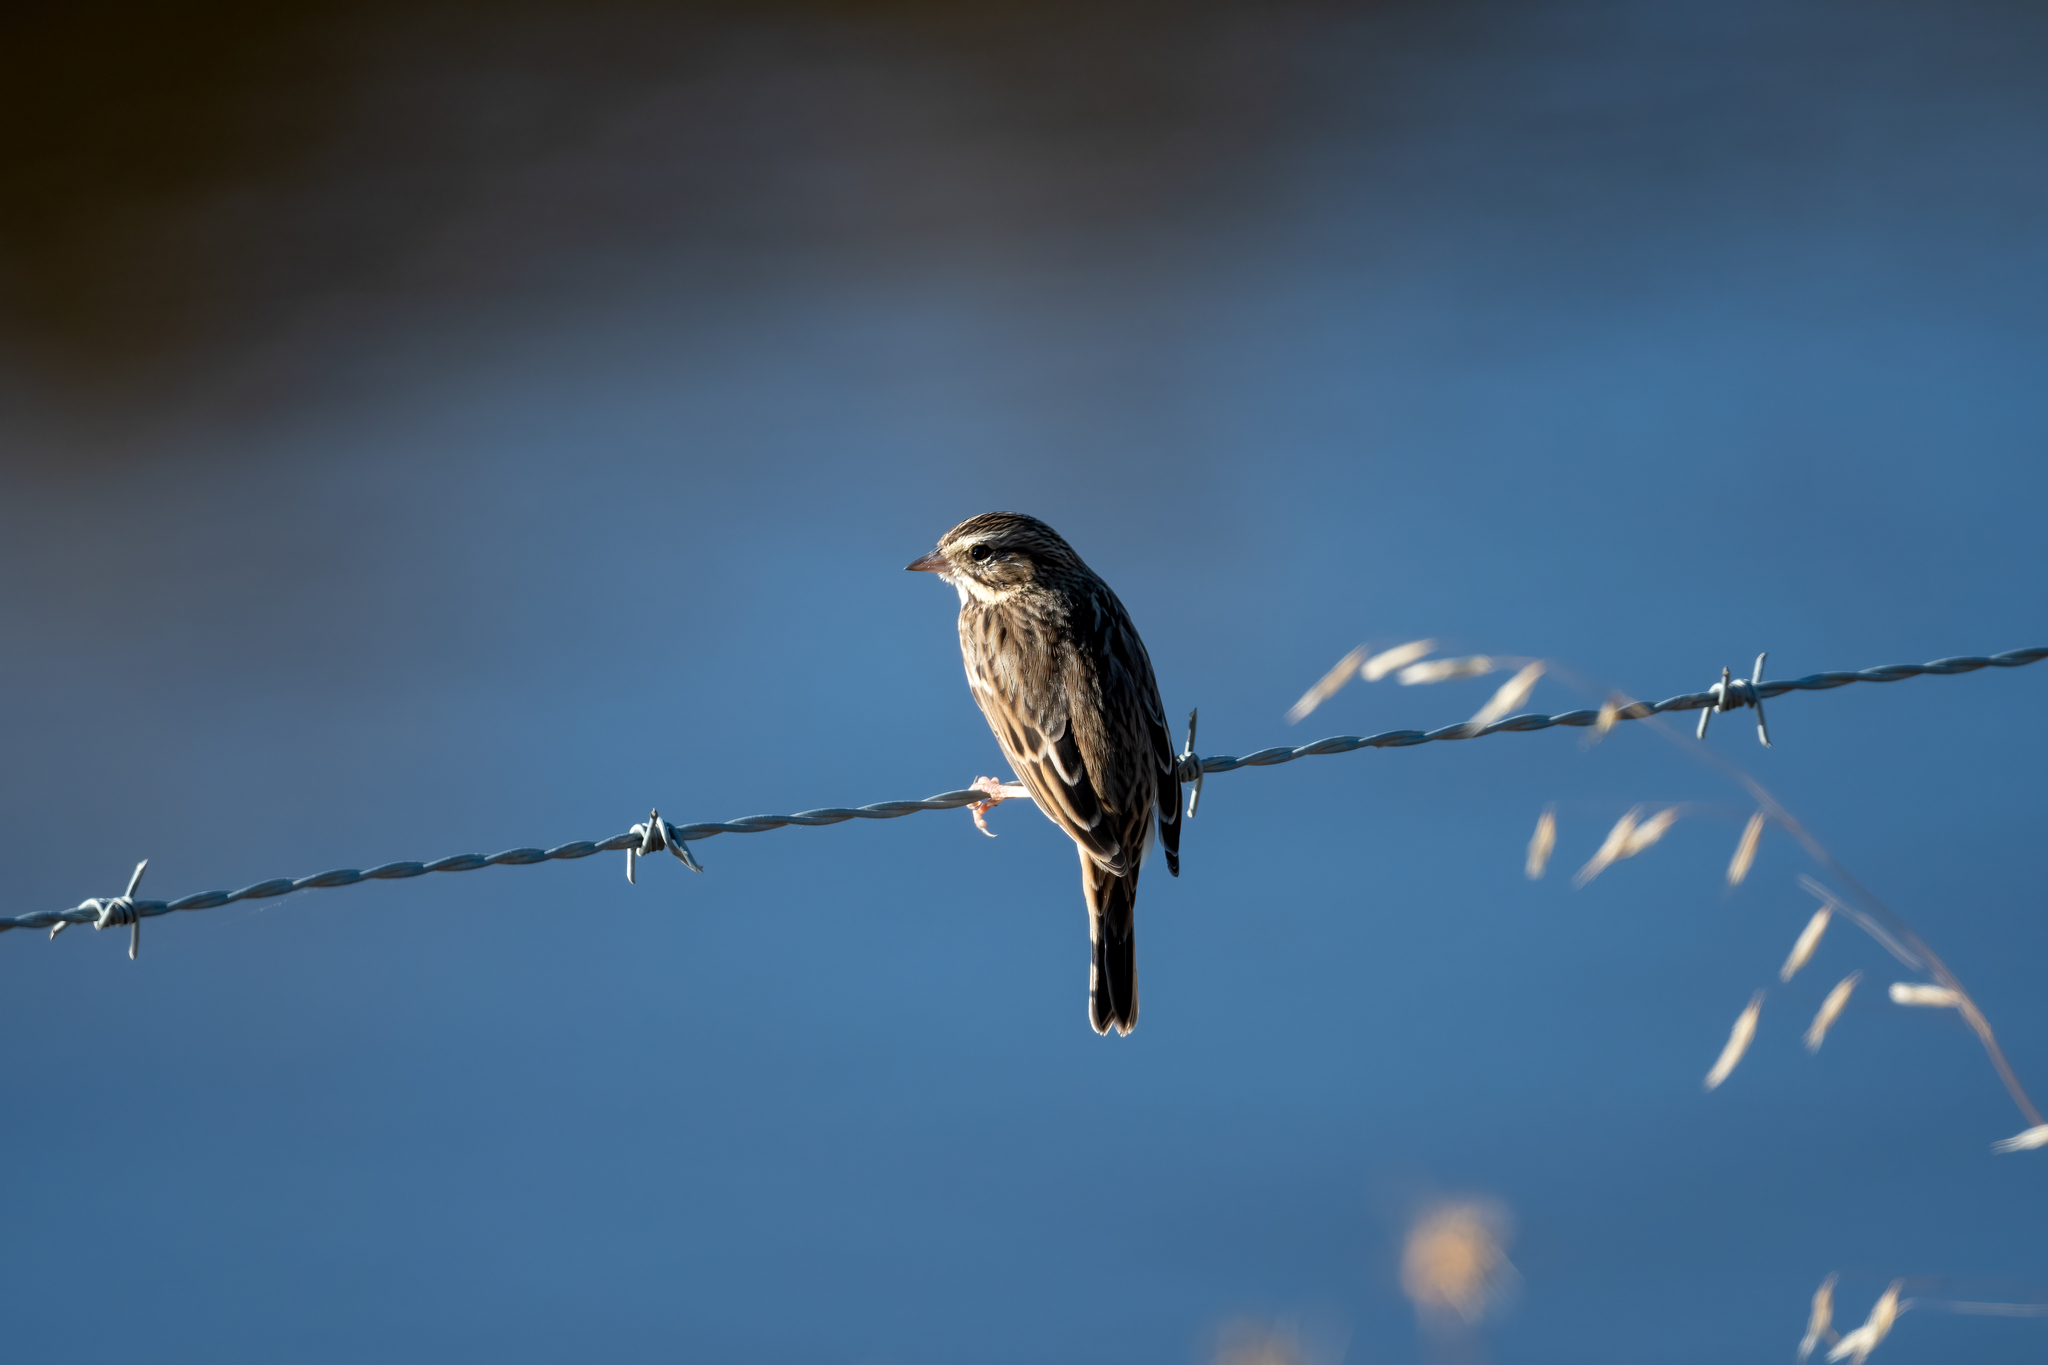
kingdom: Animalia
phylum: Chordata
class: Aves
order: Passeriformes
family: Passerellidae
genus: Passerculus
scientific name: Passerculus sandwichensis
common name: Savannah sparrow
